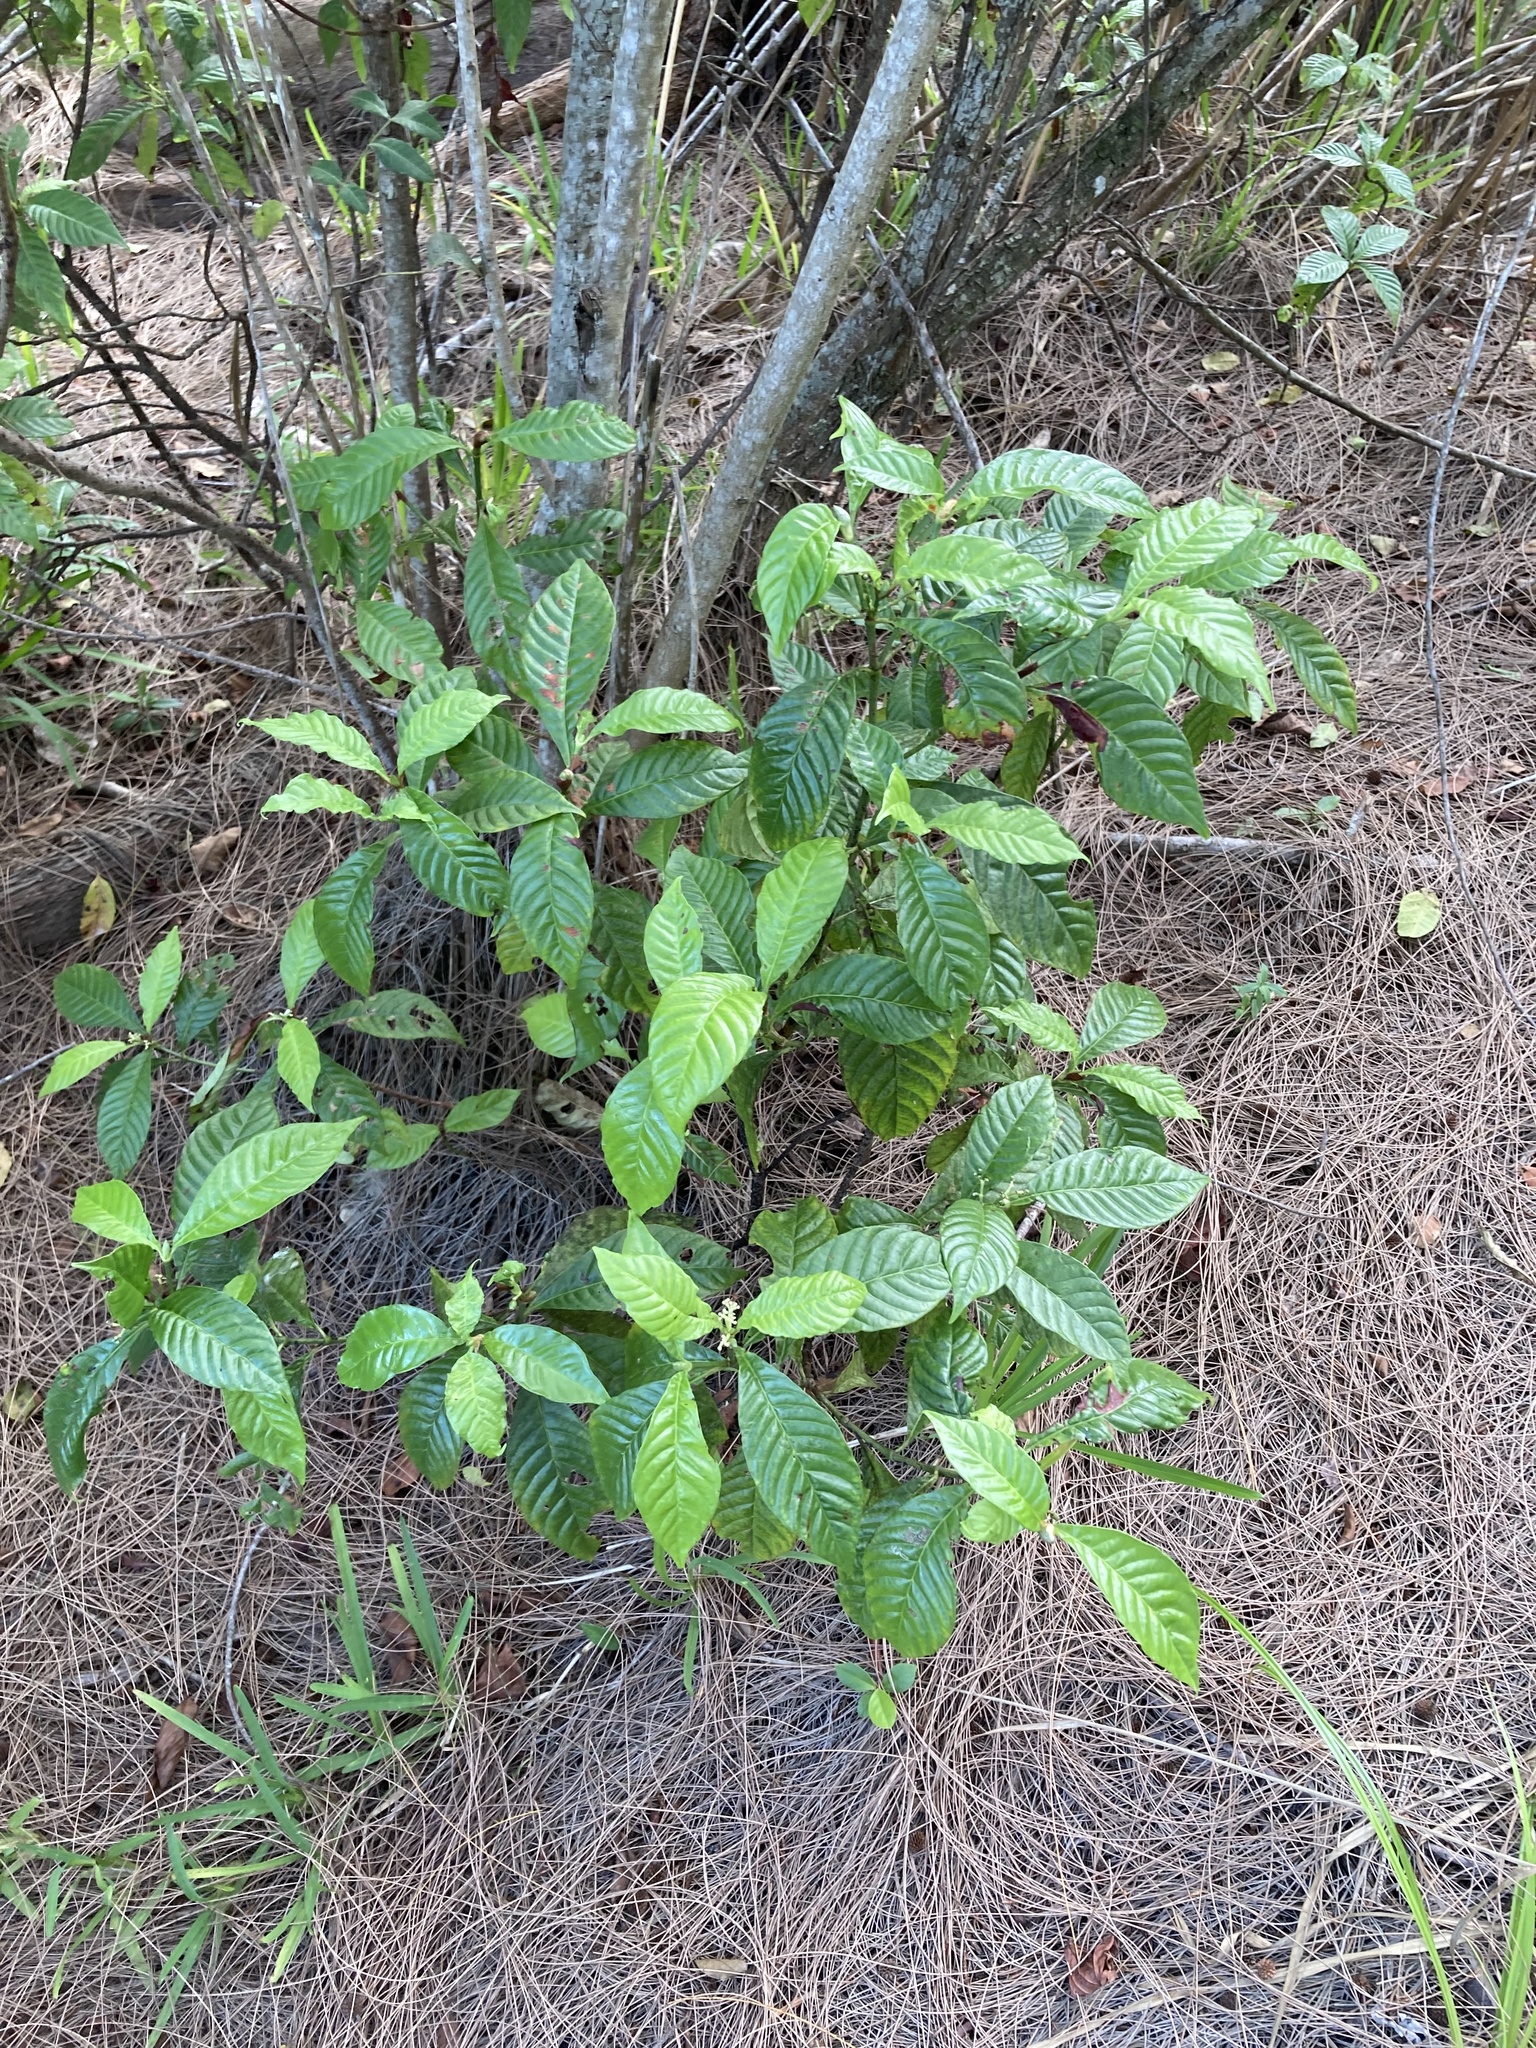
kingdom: Plantae
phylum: Tracheophyta
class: Magnoliopsida
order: Gentianales
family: Rubiaceae
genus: Psychotria
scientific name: Psychotria nervosa
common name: Bastard cankerberry
